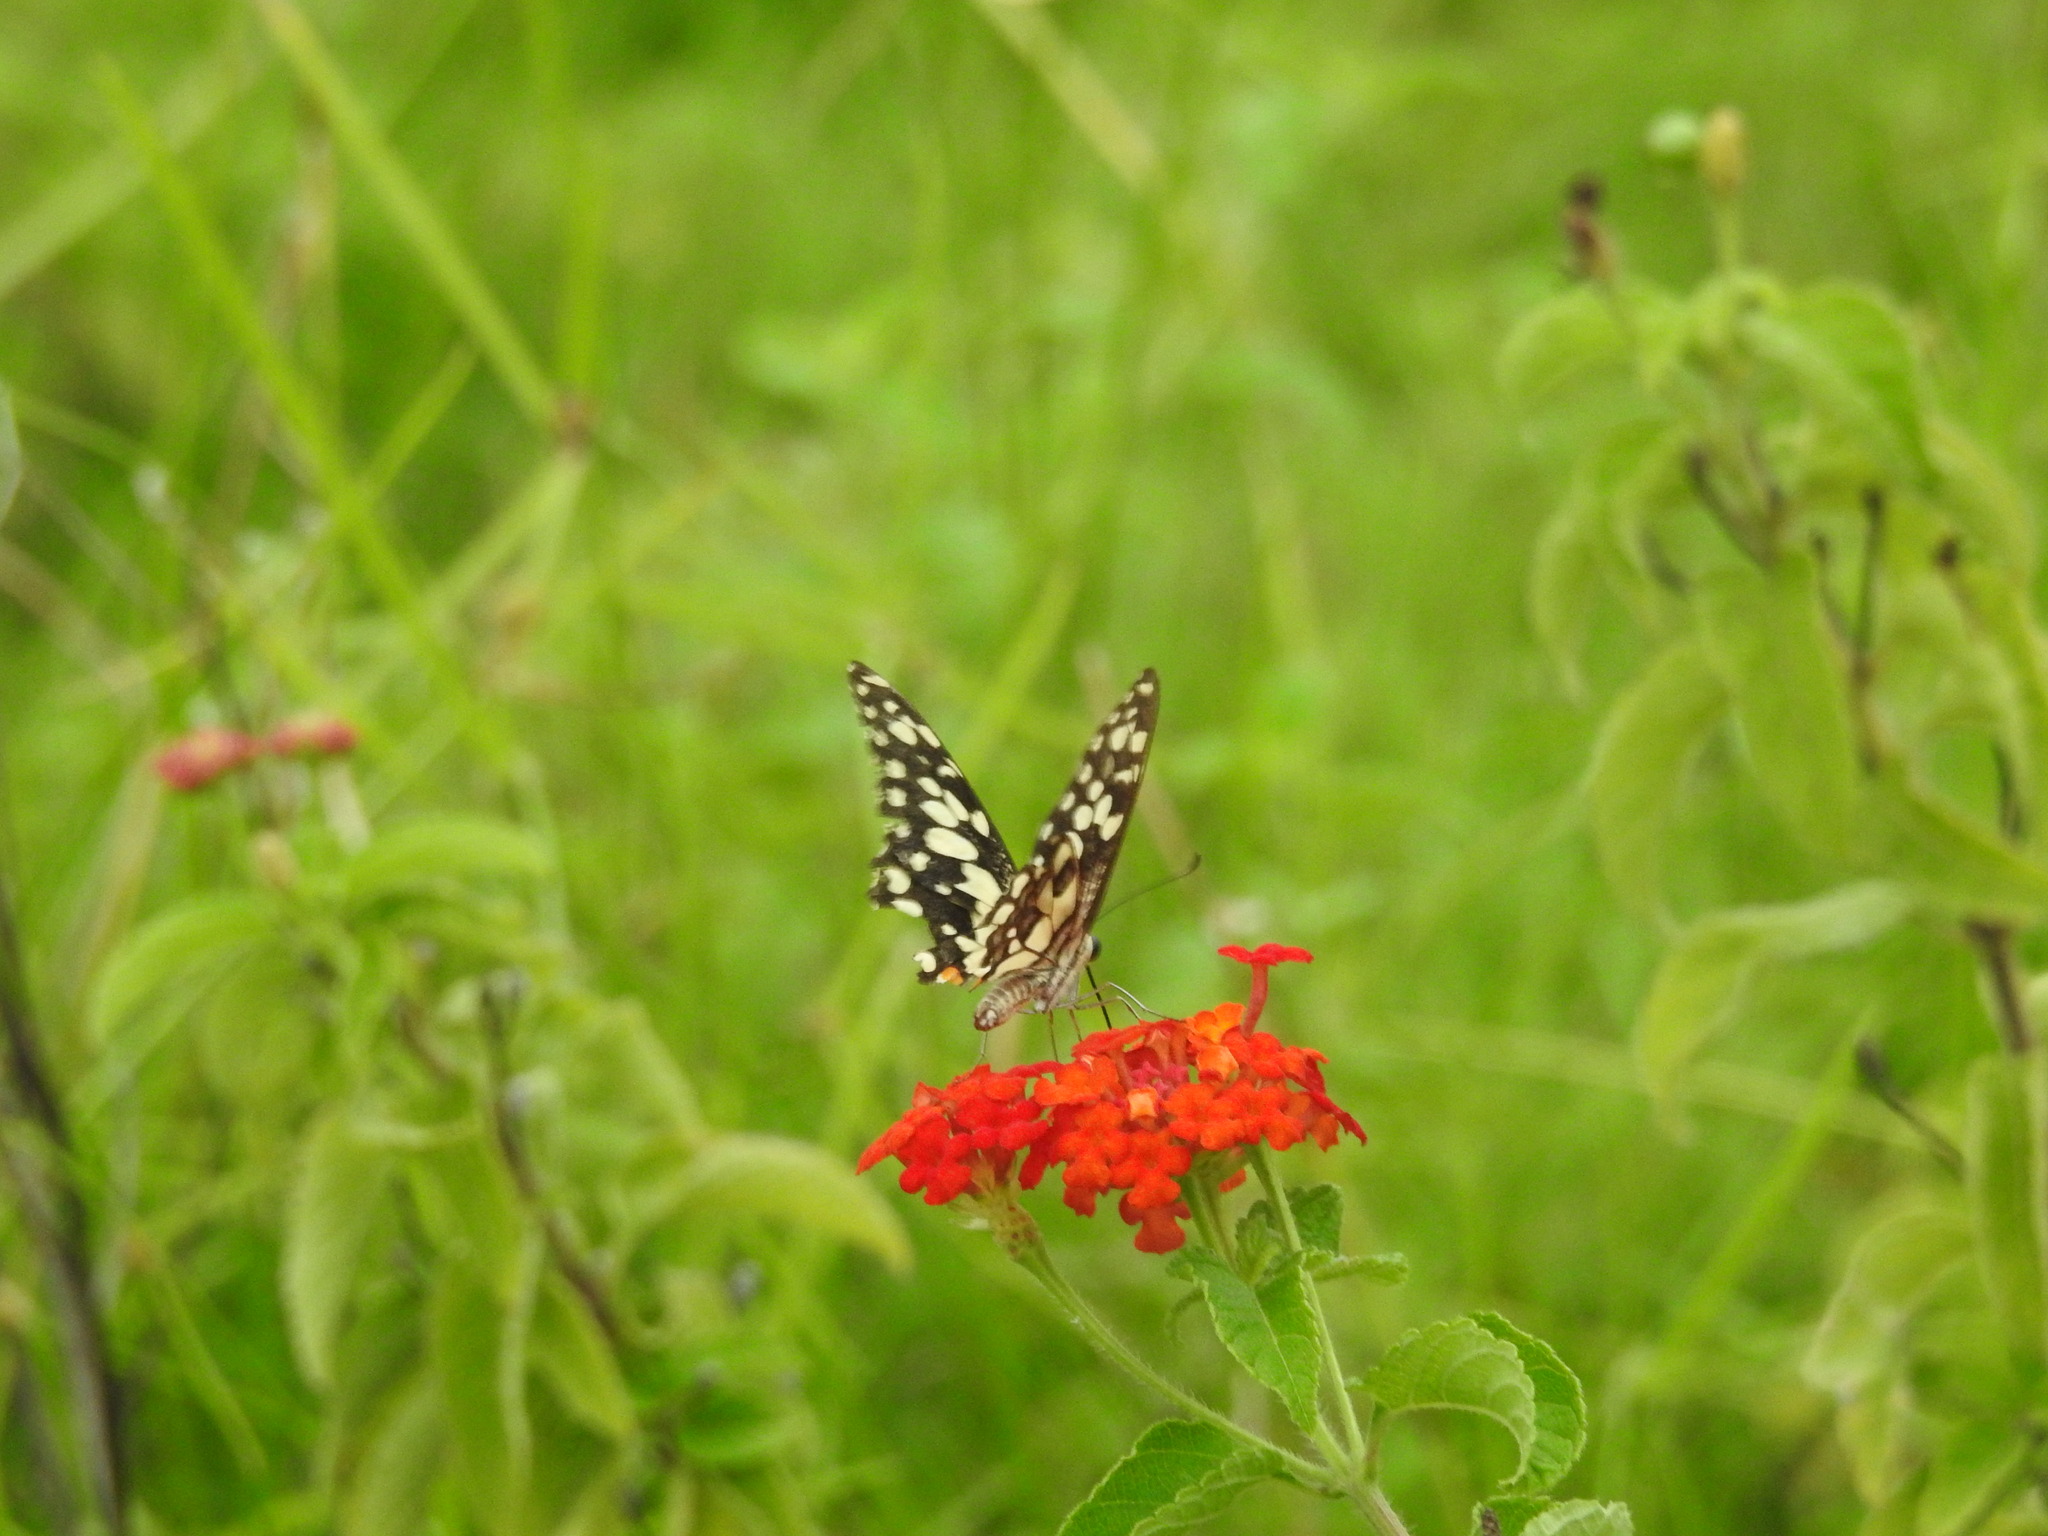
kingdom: Animalia
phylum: Arthropoda
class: Insecta
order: Lepidoptera
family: Papilionidae
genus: Papilio
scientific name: Papilio demoleus
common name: Lime butterfly
